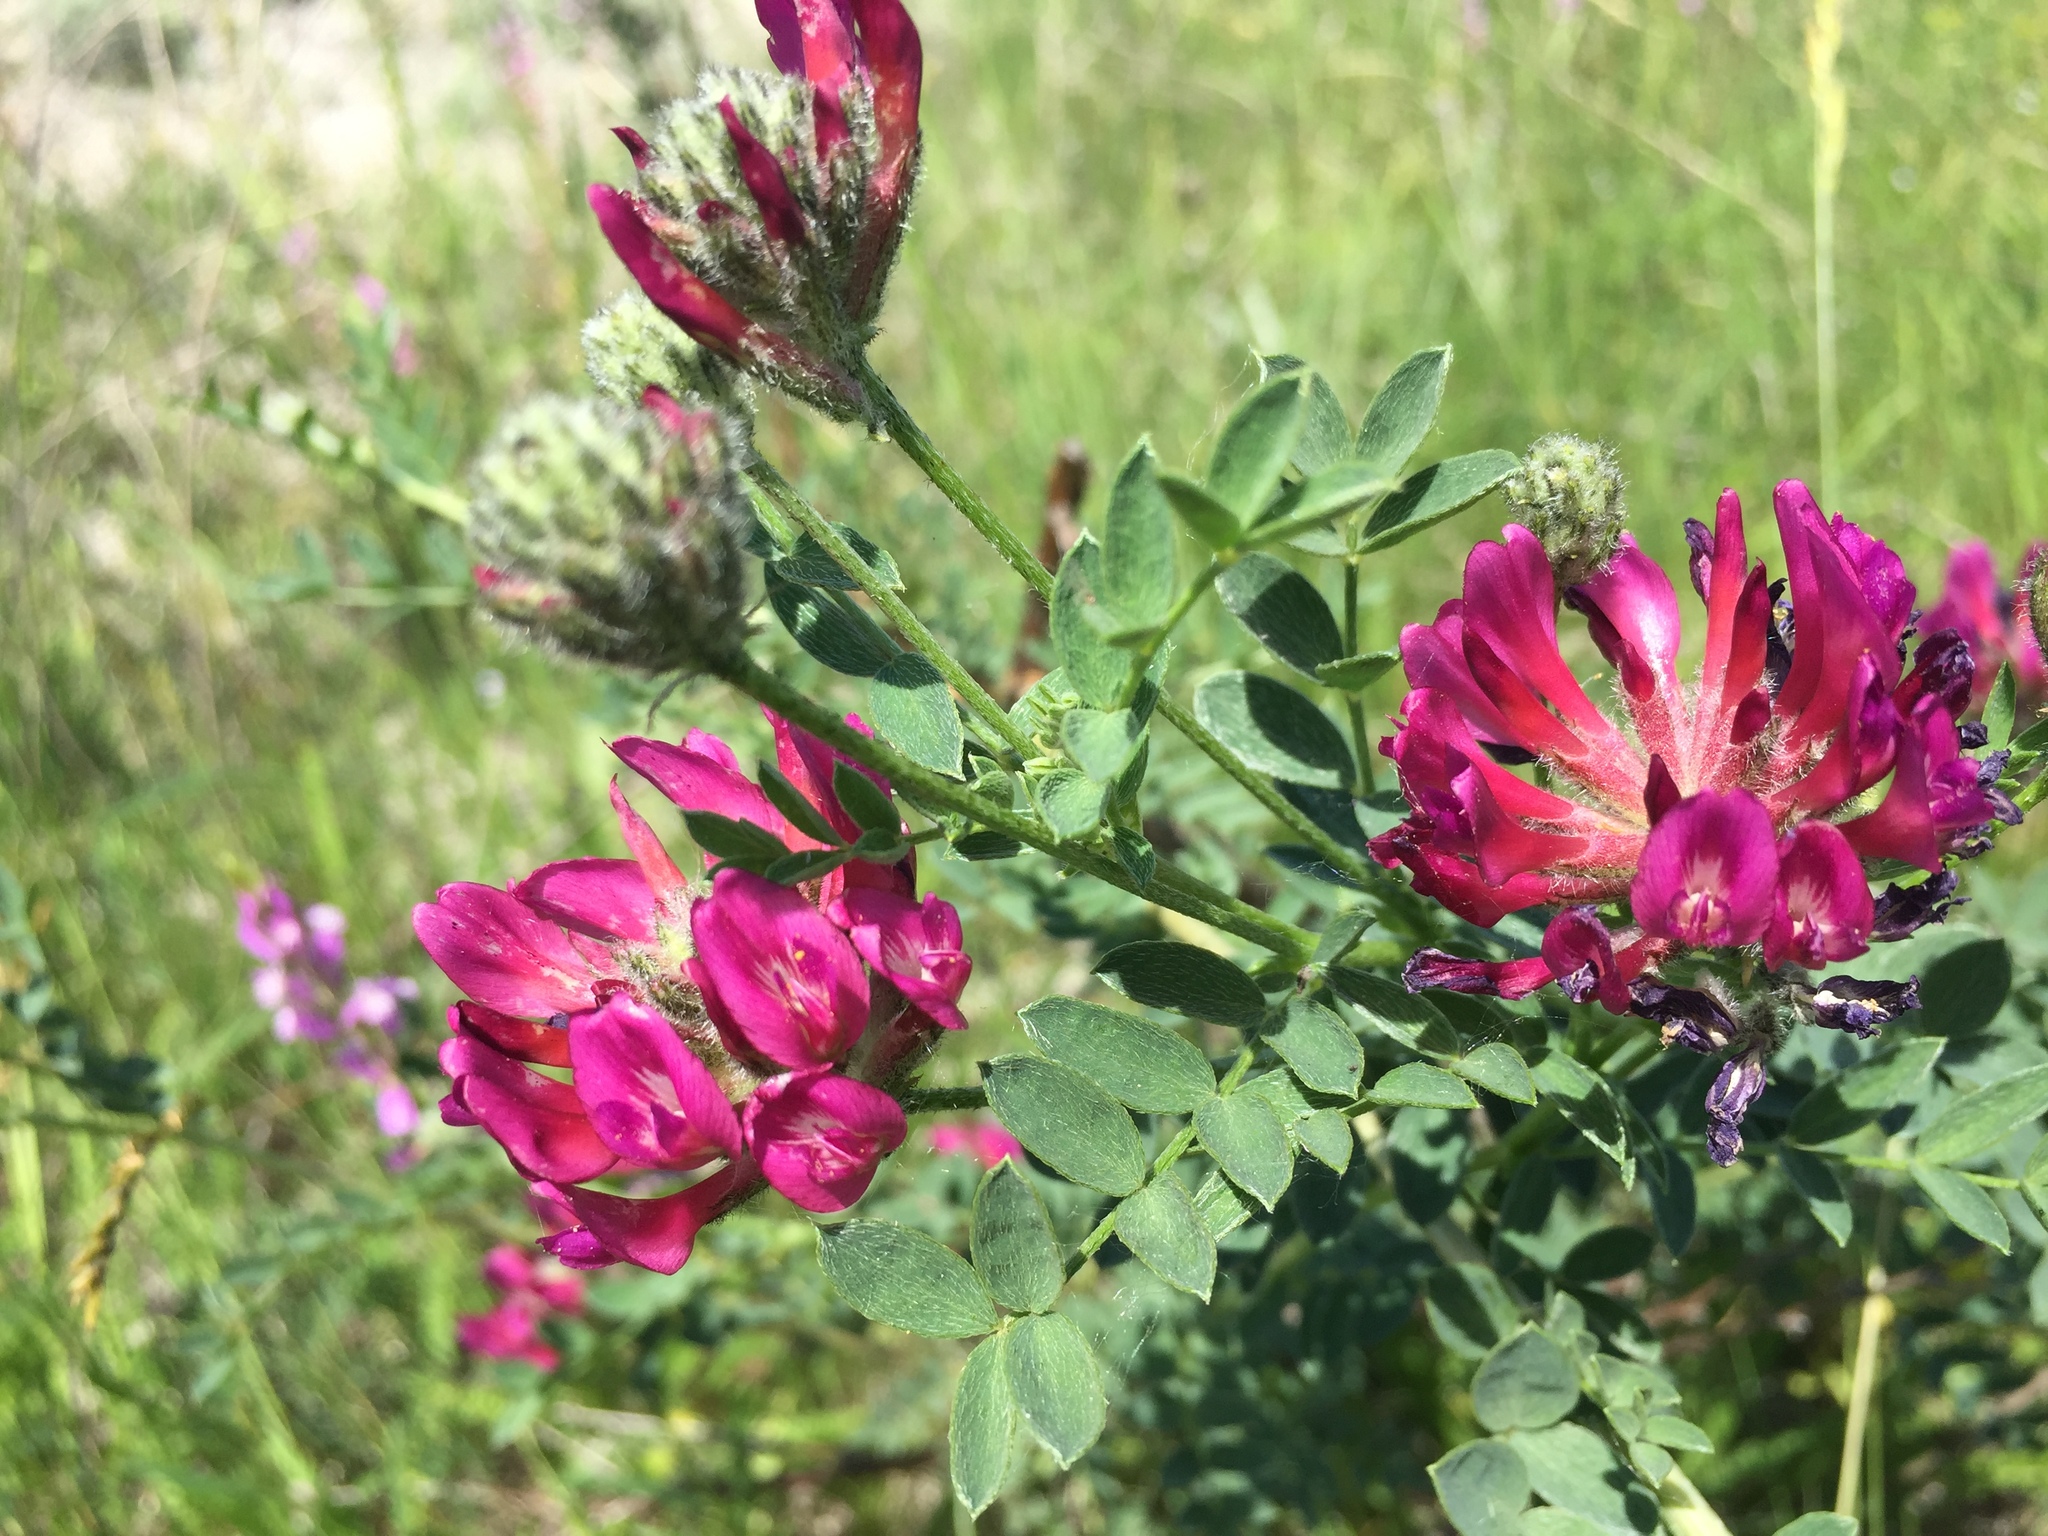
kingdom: Plantae
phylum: Tracheophyta
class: Magnoliopsida
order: Fabales
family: Fabaceae
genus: Astragalus
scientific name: Astragalus onobrychis
